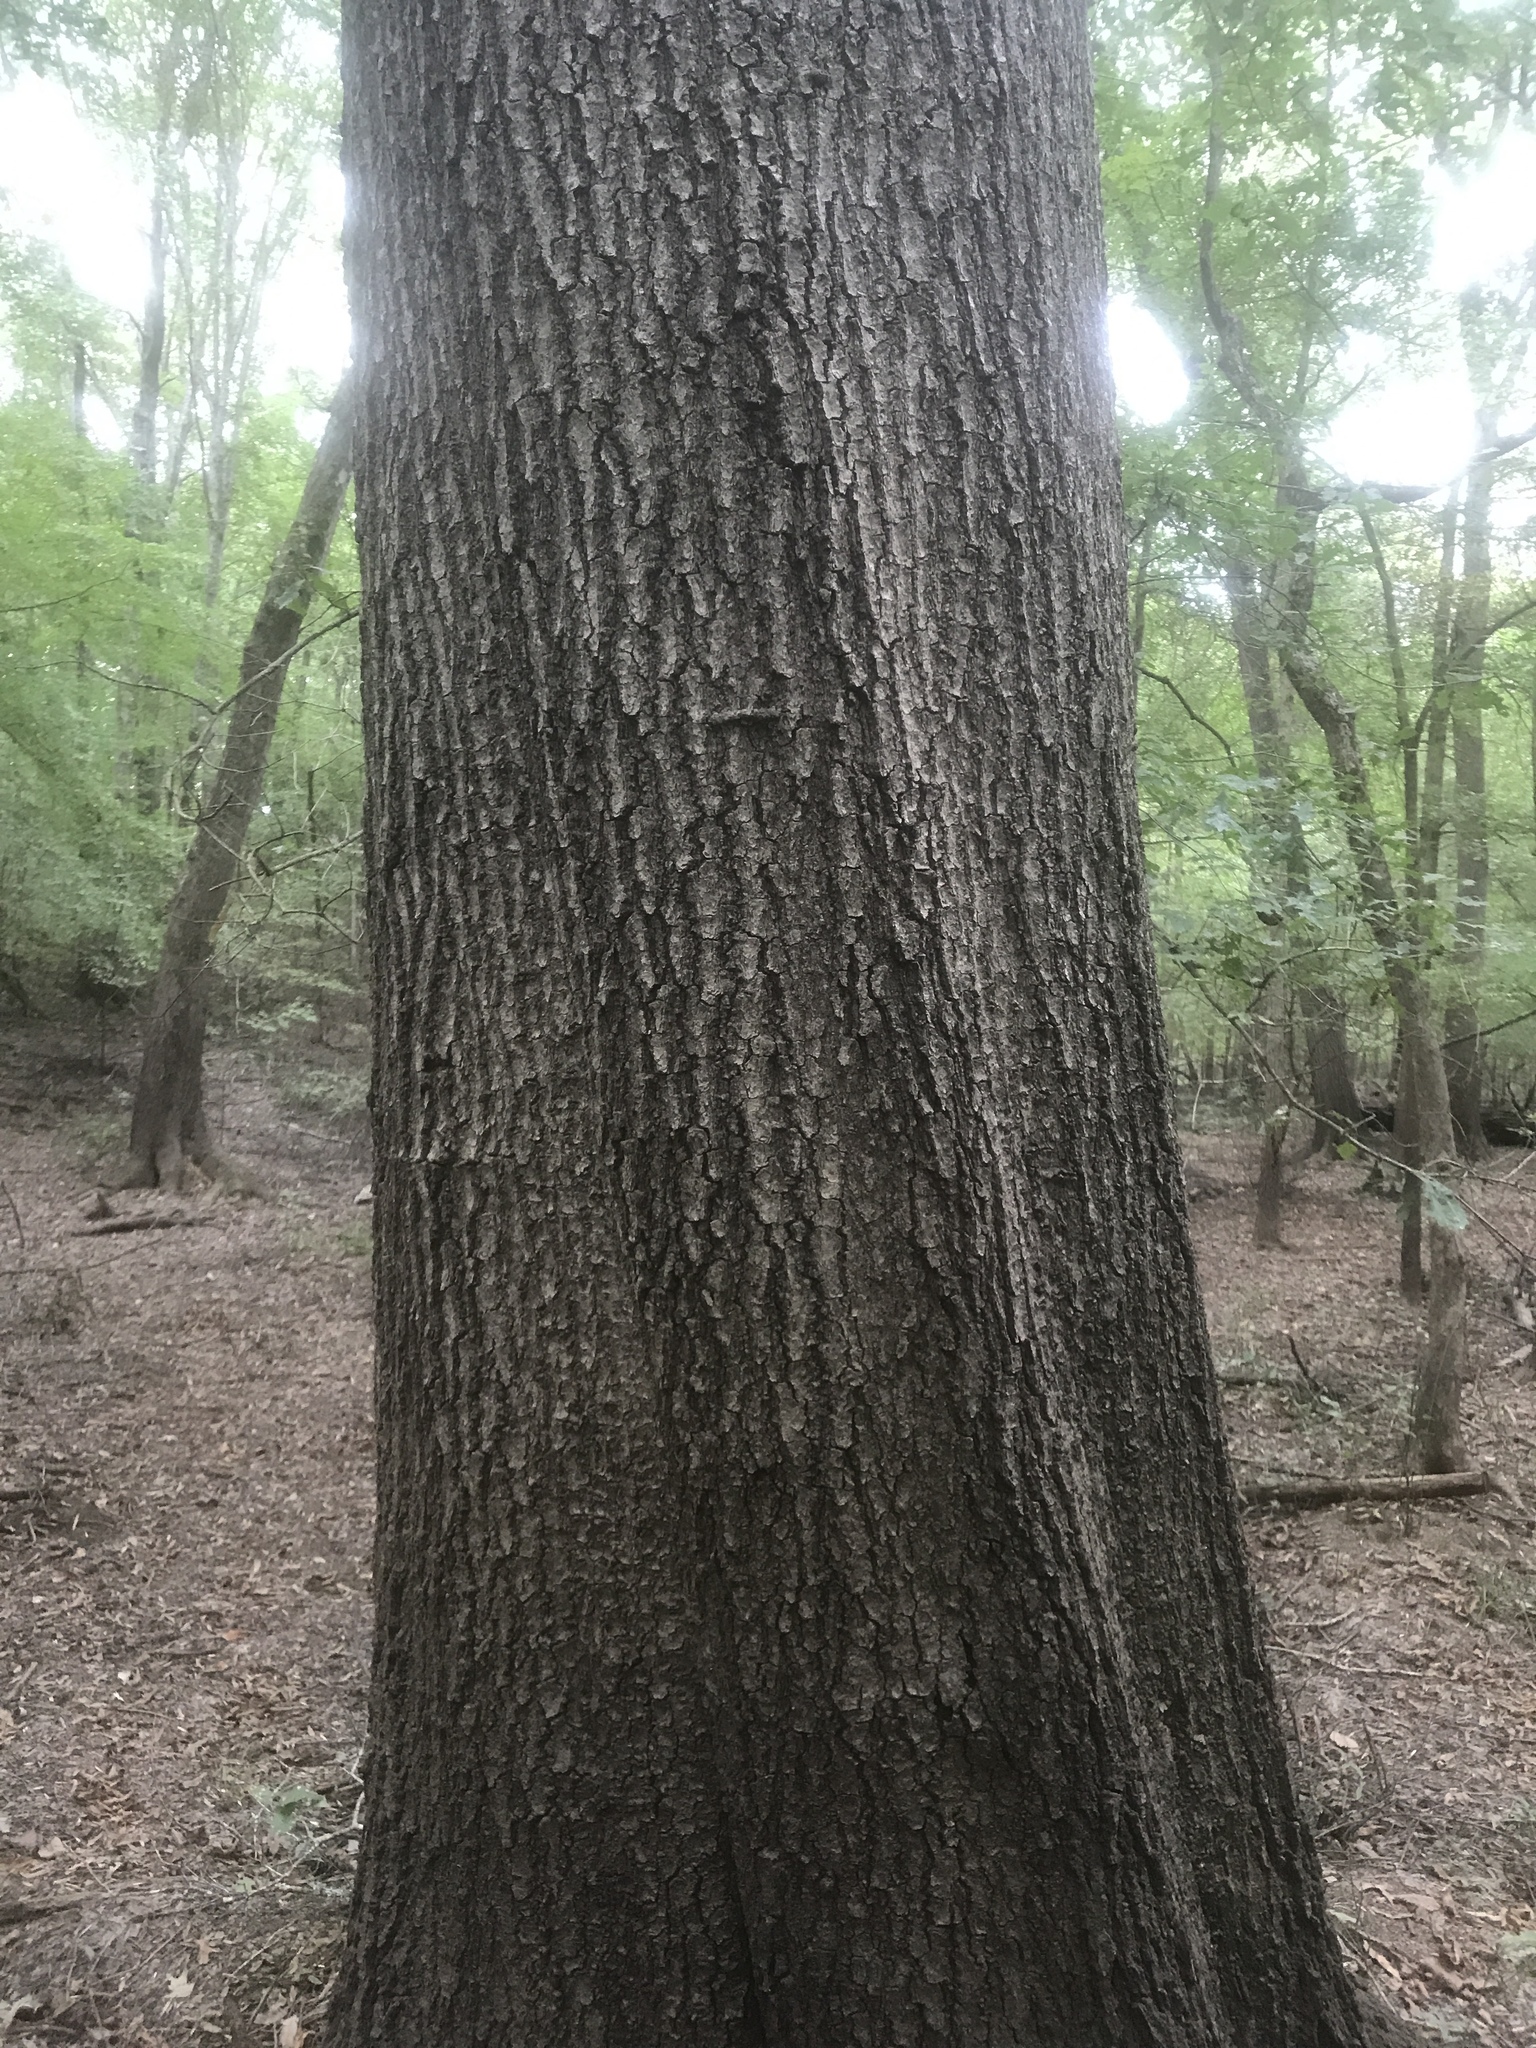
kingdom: Plantae
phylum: Tracheophyta
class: Magnoliopsida
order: Fagales
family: Fagaceae
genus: Quercus
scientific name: Quercus phellos
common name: Willow oak
